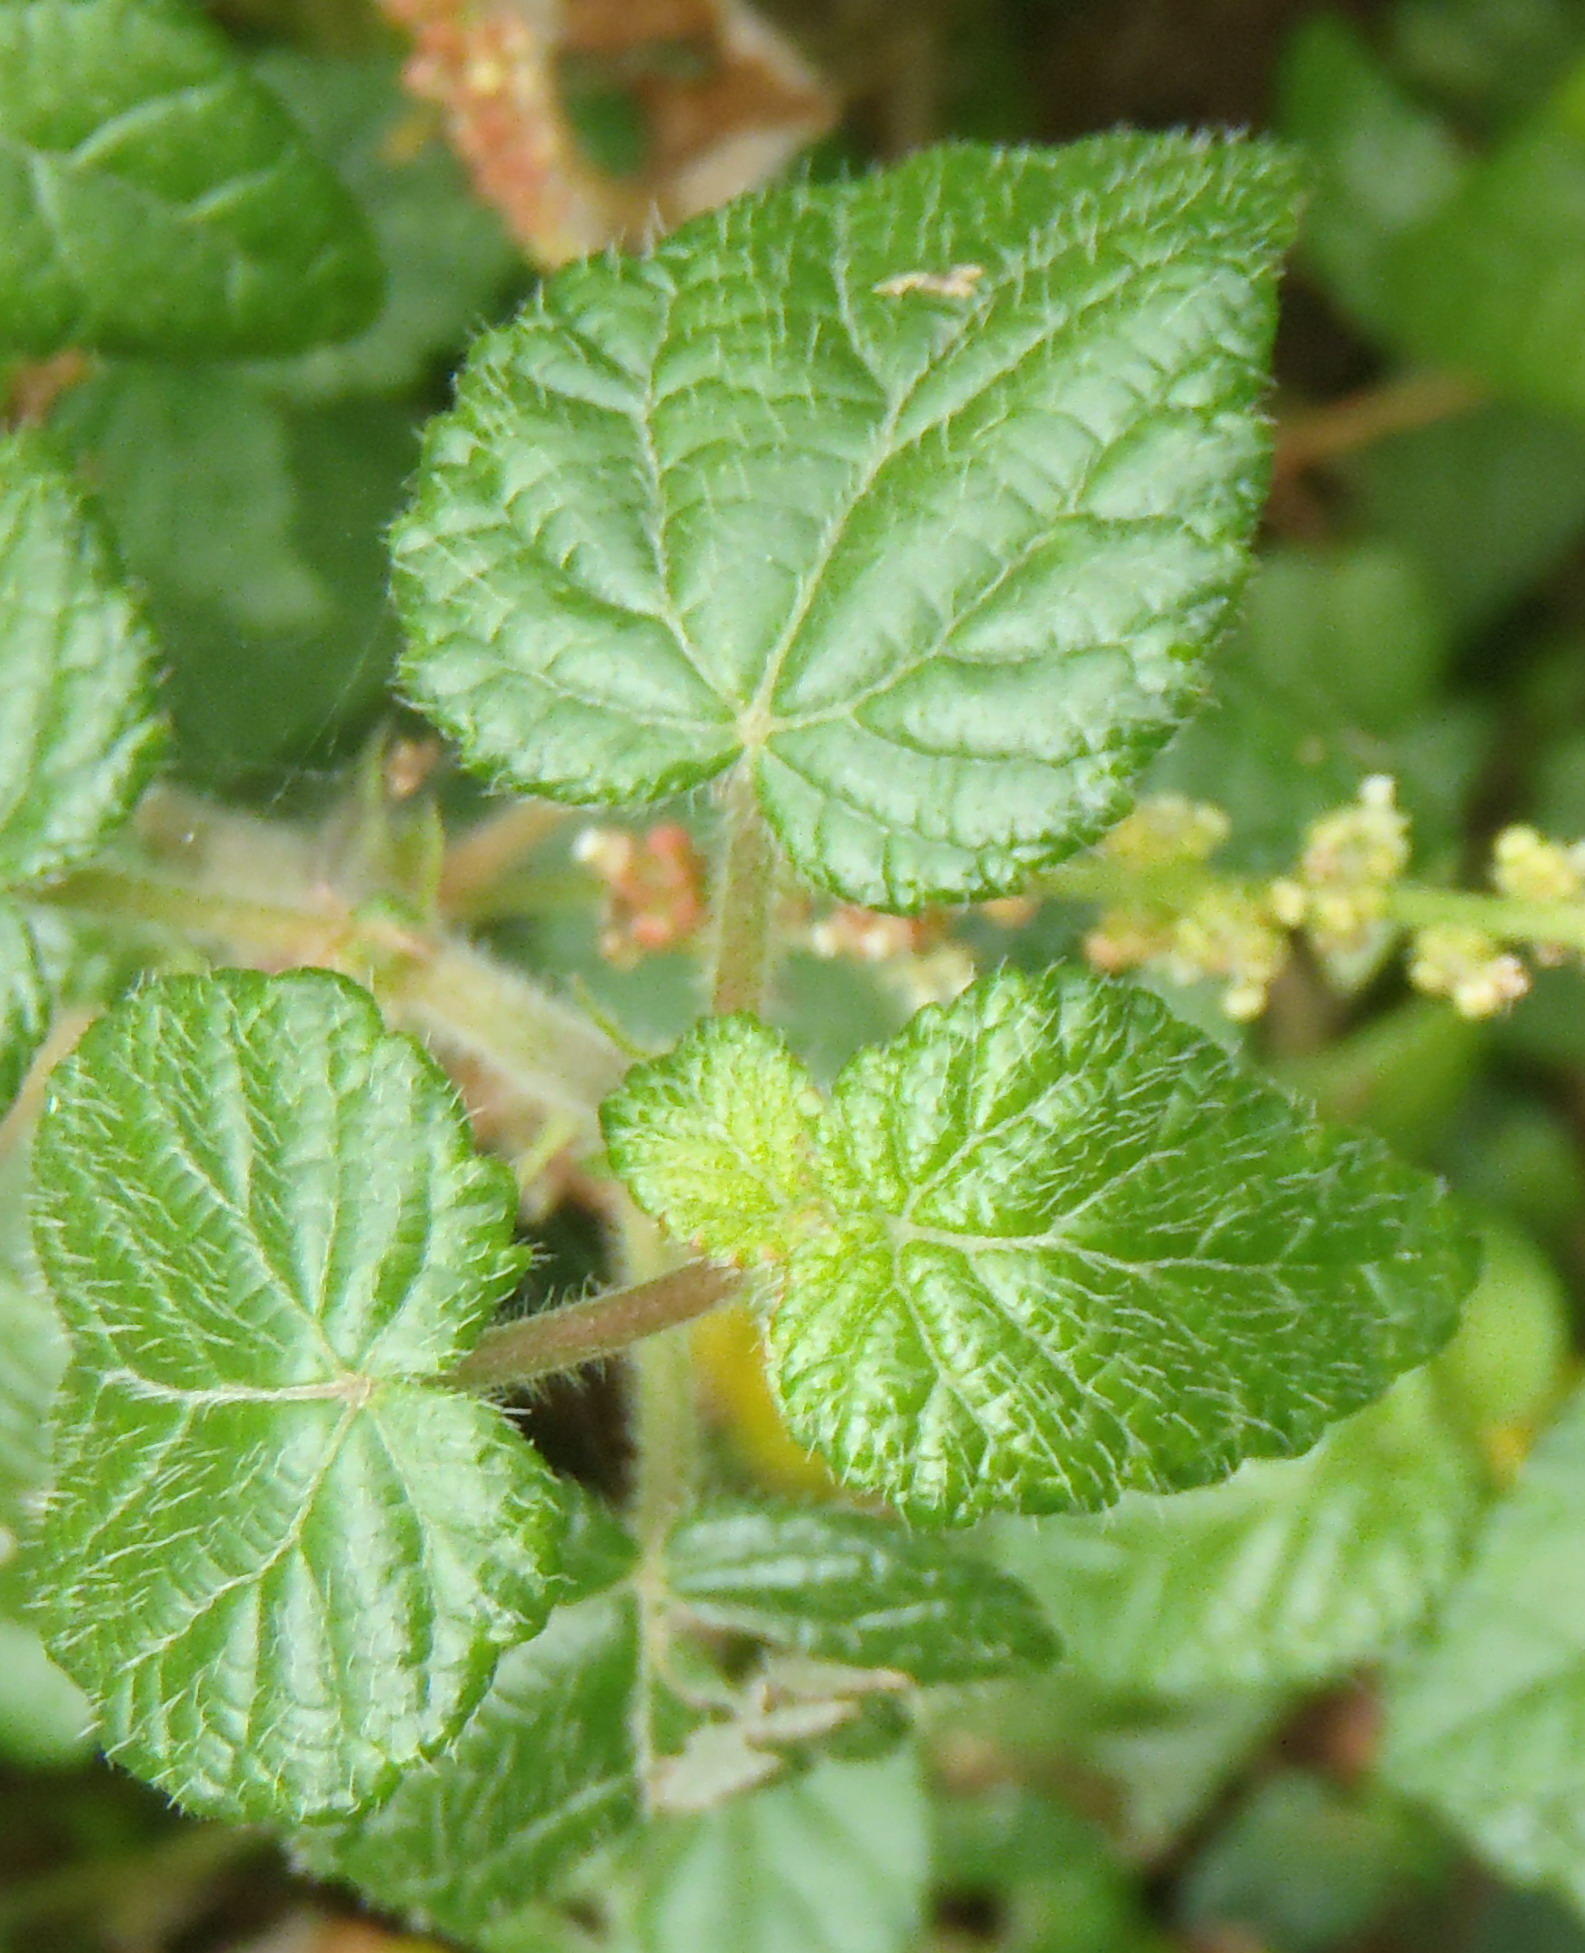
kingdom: Plantae
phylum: Tracheophyta
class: Magnoliopsida
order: Malpighiales
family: Euphorbiaceae
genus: Bernardia
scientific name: Bernardia corensis
